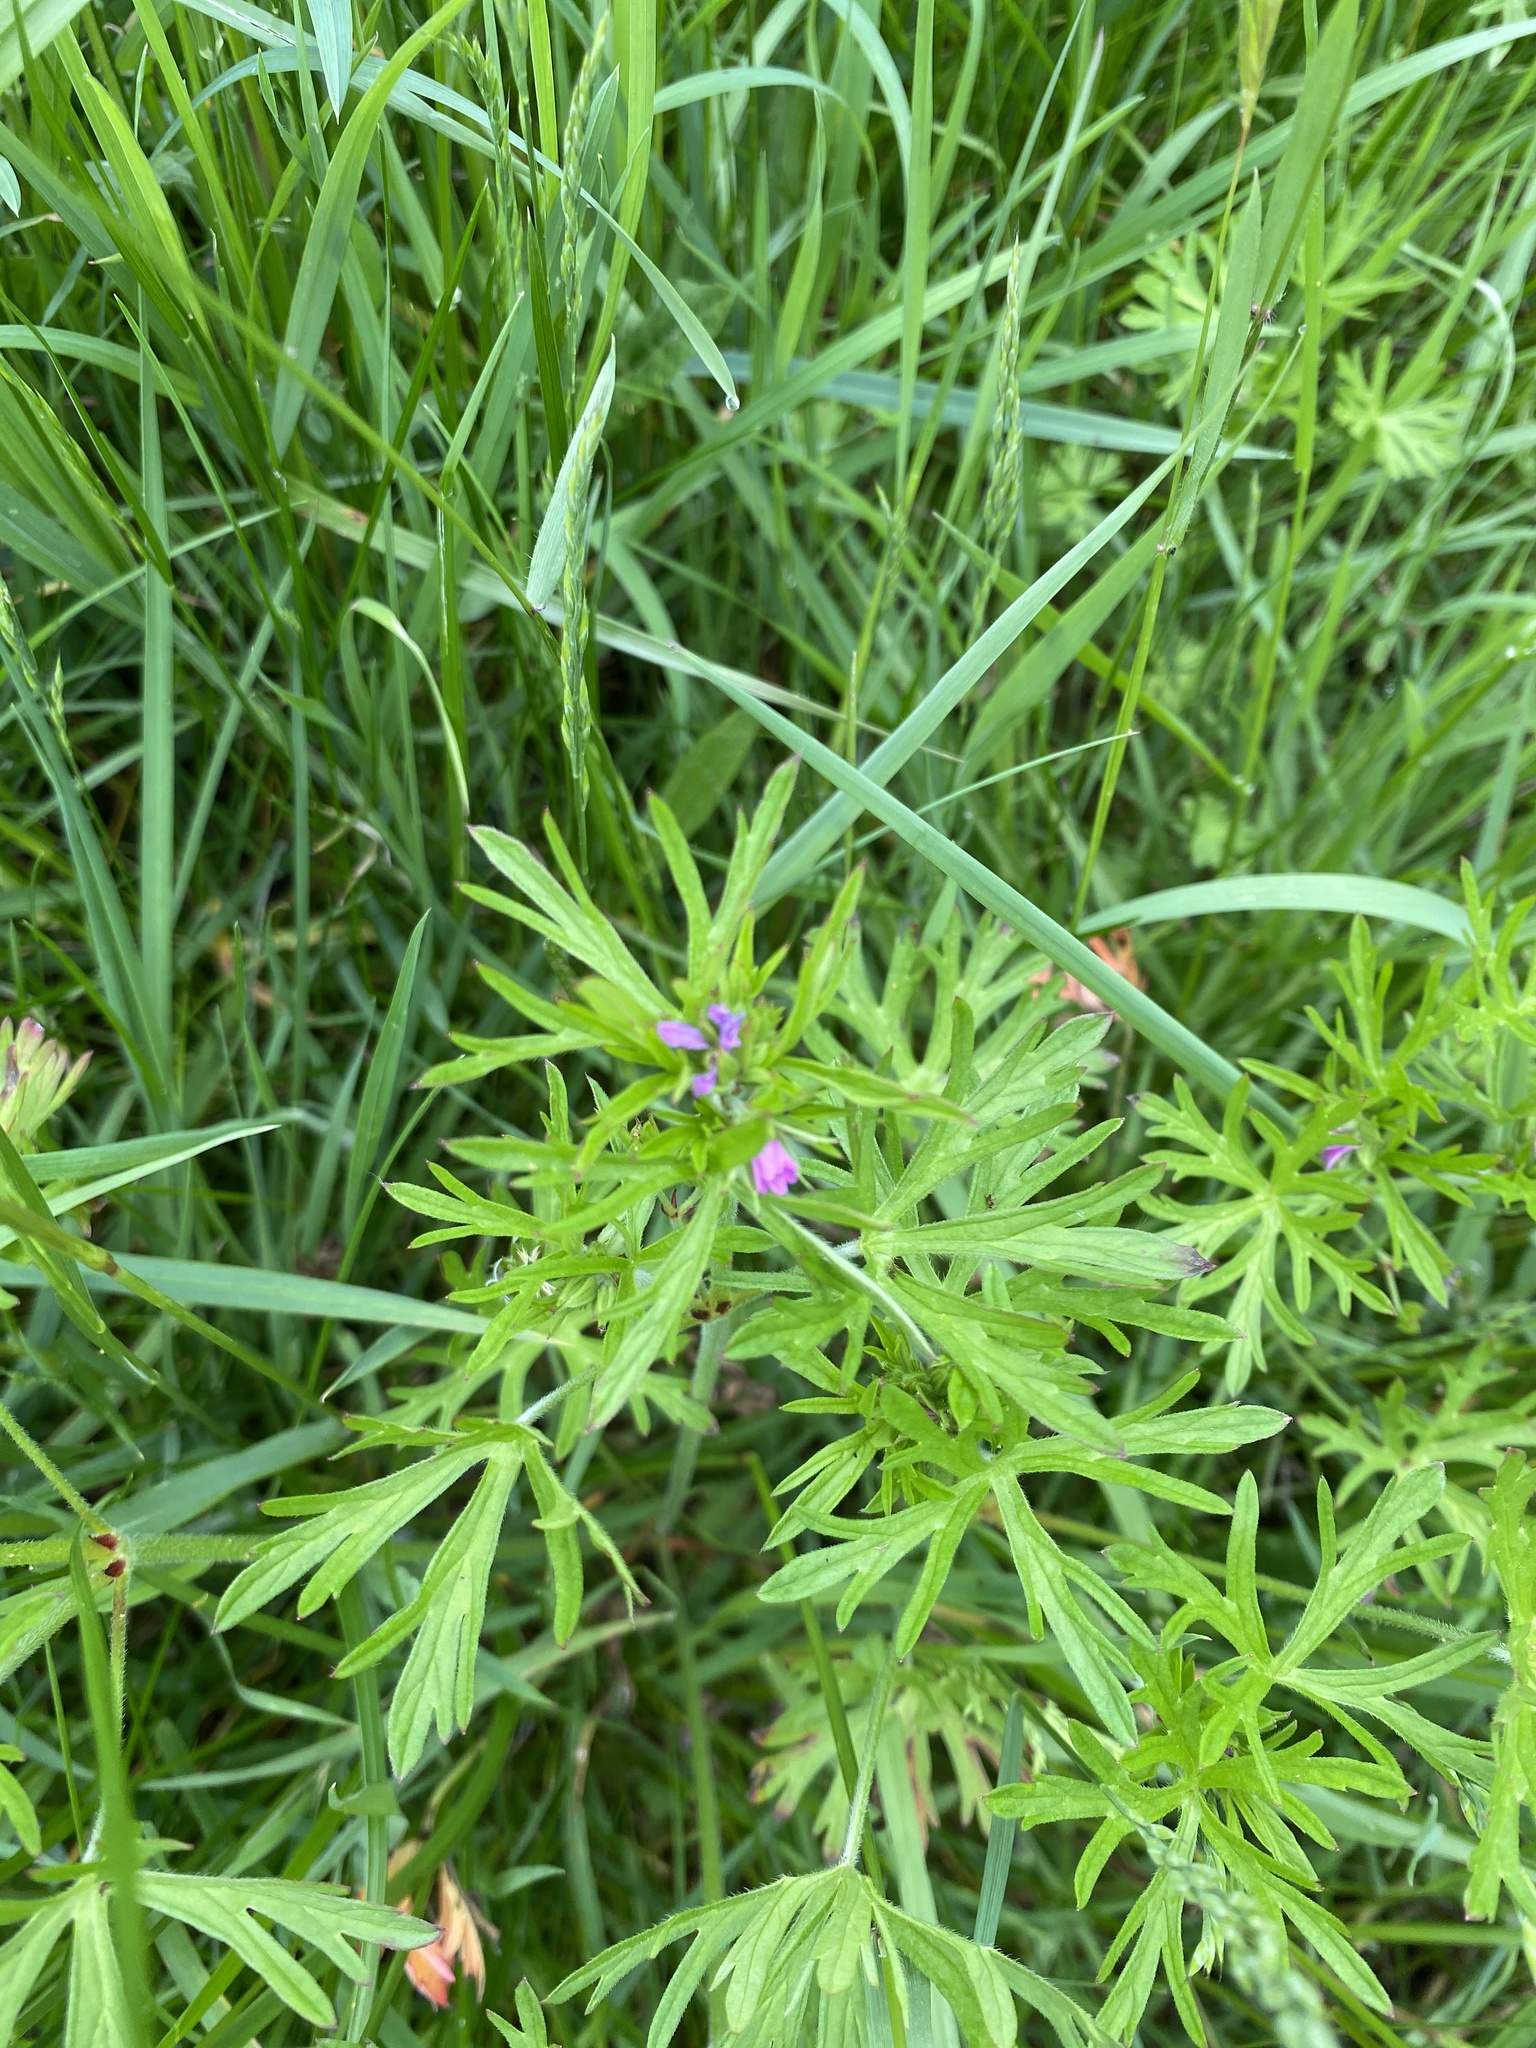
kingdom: Plantae
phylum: Tracheophyta
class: Magnoliopsida
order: Geraniales
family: Geraniaceae
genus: Geranium
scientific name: Geranium dissectum
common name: Cut-leaved crane's-bill
